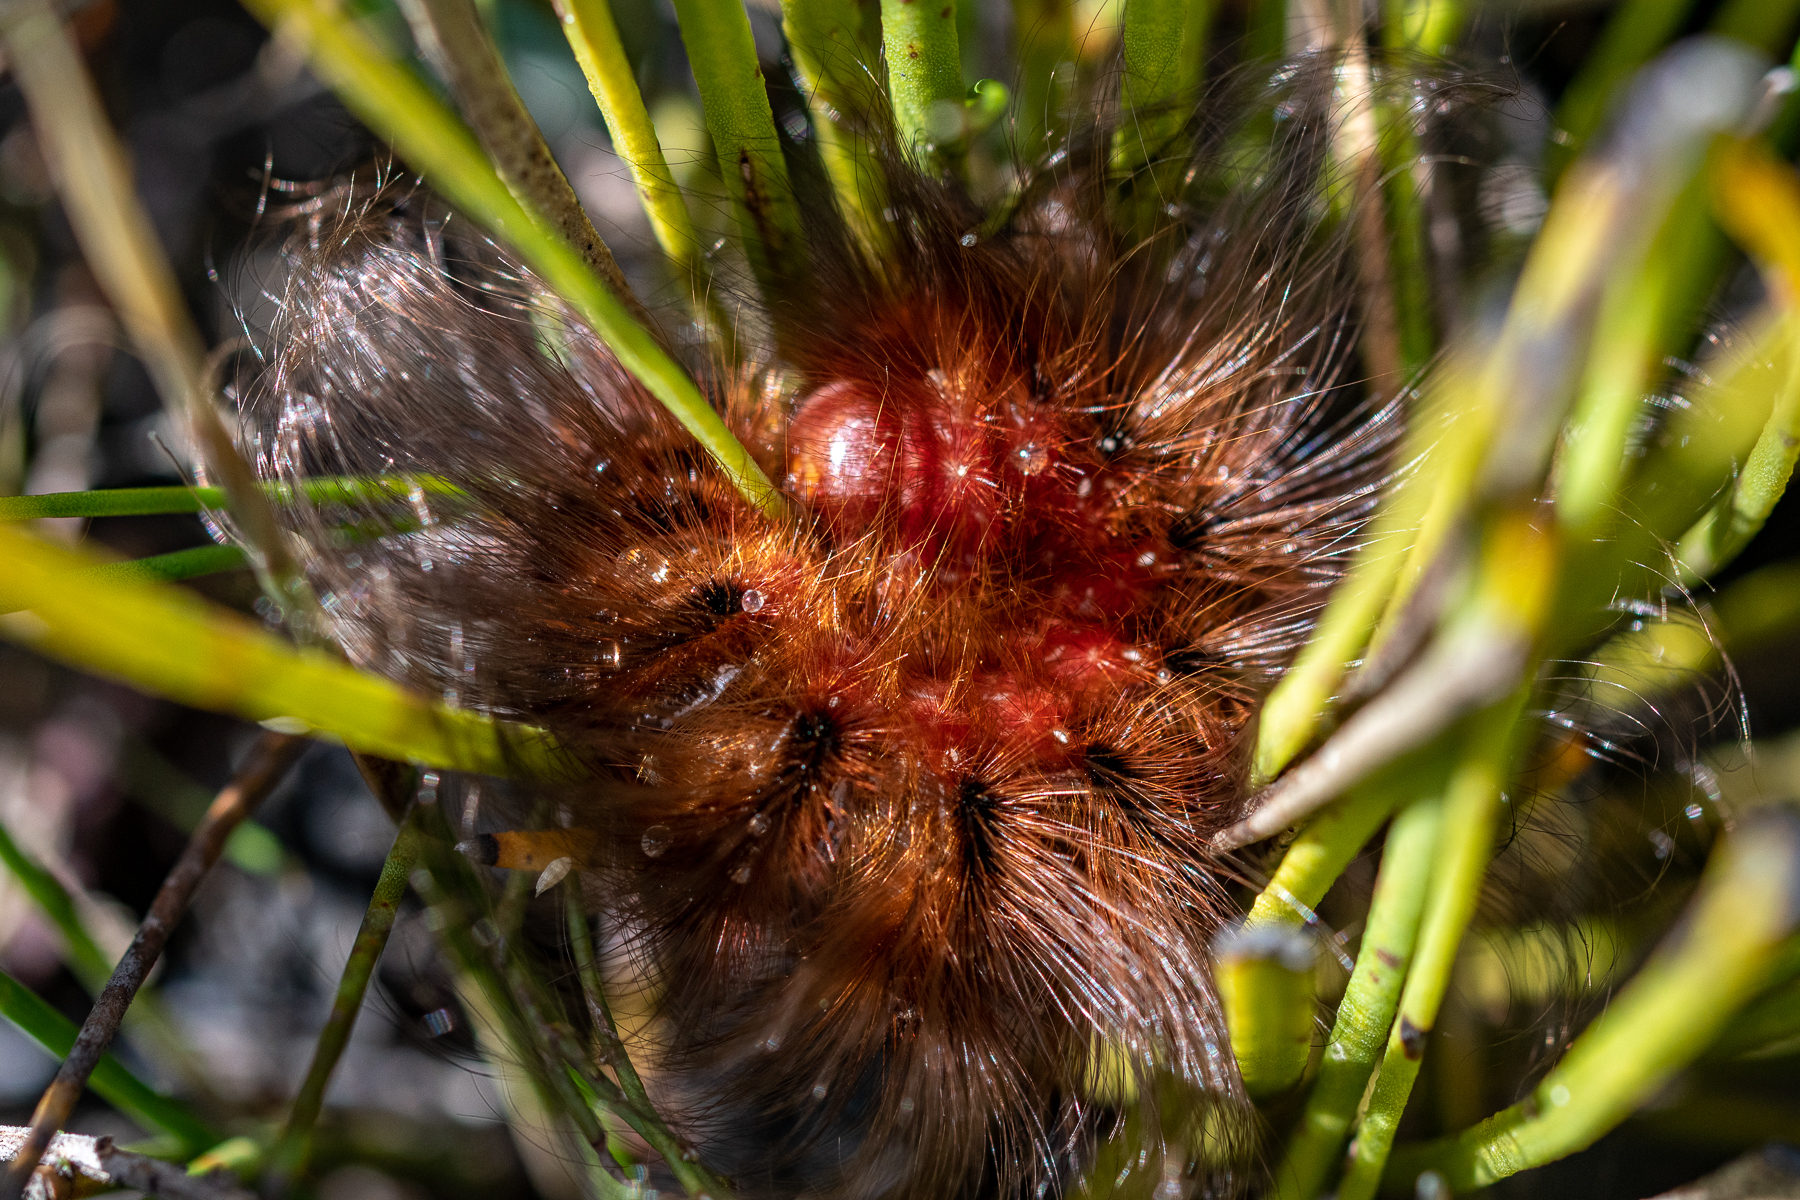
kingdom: Animalia
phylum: Arthropoda
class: Insecta
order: Lepidoptera
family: Eupterotidae
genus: Phyllalia
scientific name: Phyllalia patens
